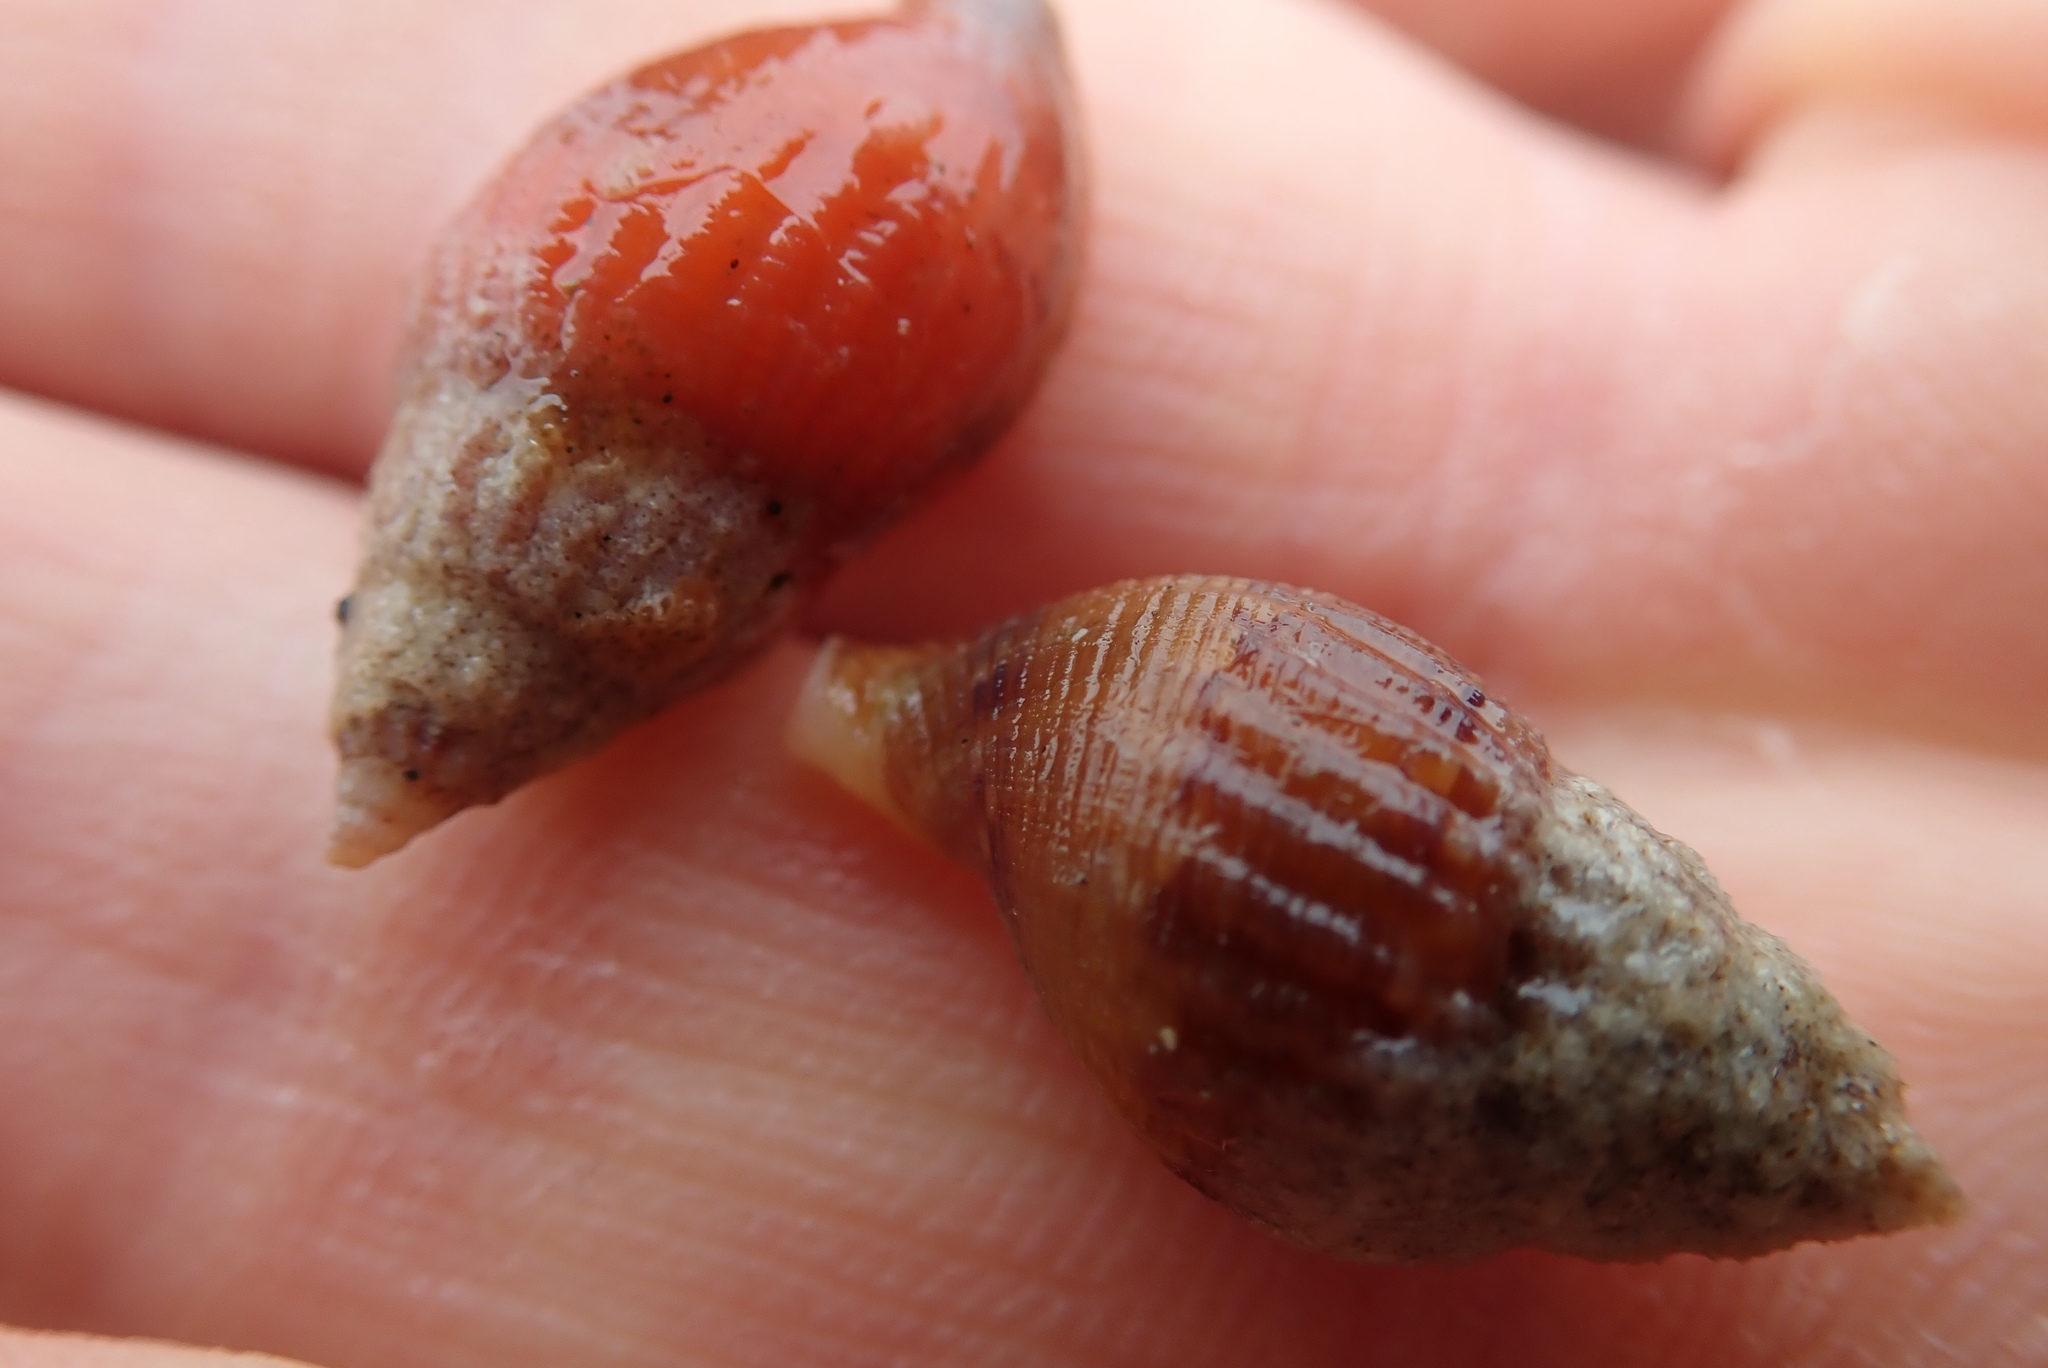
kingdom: Animalia
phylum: Mollusca
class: Gastropoda
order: Neogastropoda
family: Columbellidae
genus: Amphissa
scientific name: Amphissa columbiana
